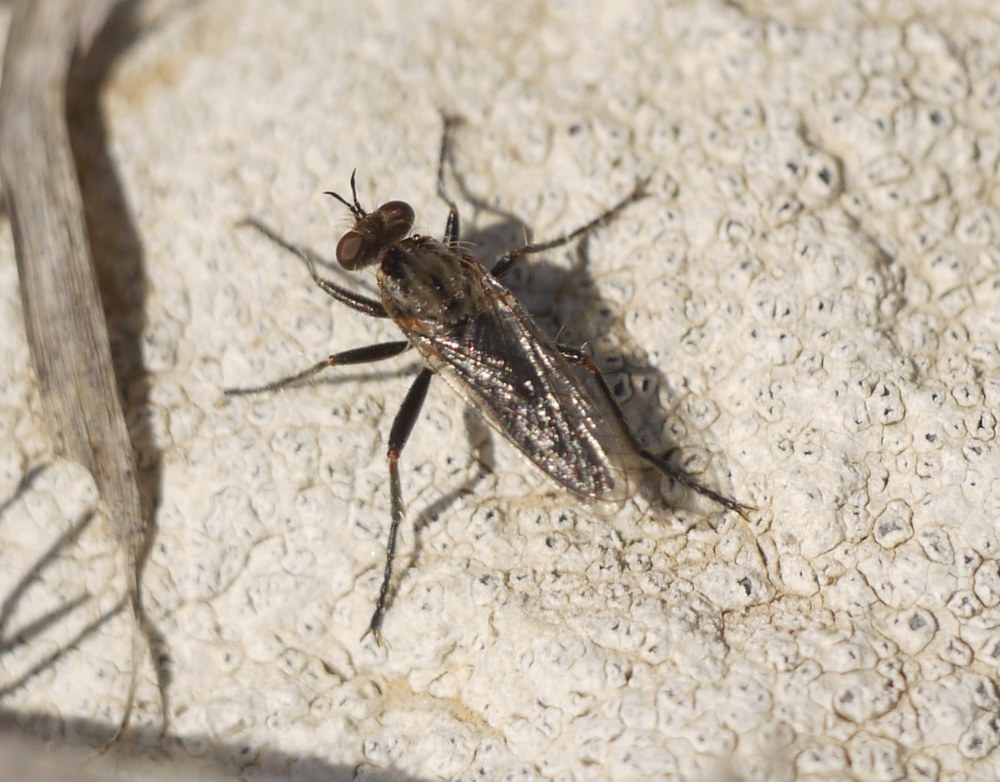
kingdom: Animalia
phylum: Arthropoda
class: Insecta
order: Diptera
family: Asilidae
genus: Paraphamartania
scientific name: Paraphamartania syriaca
